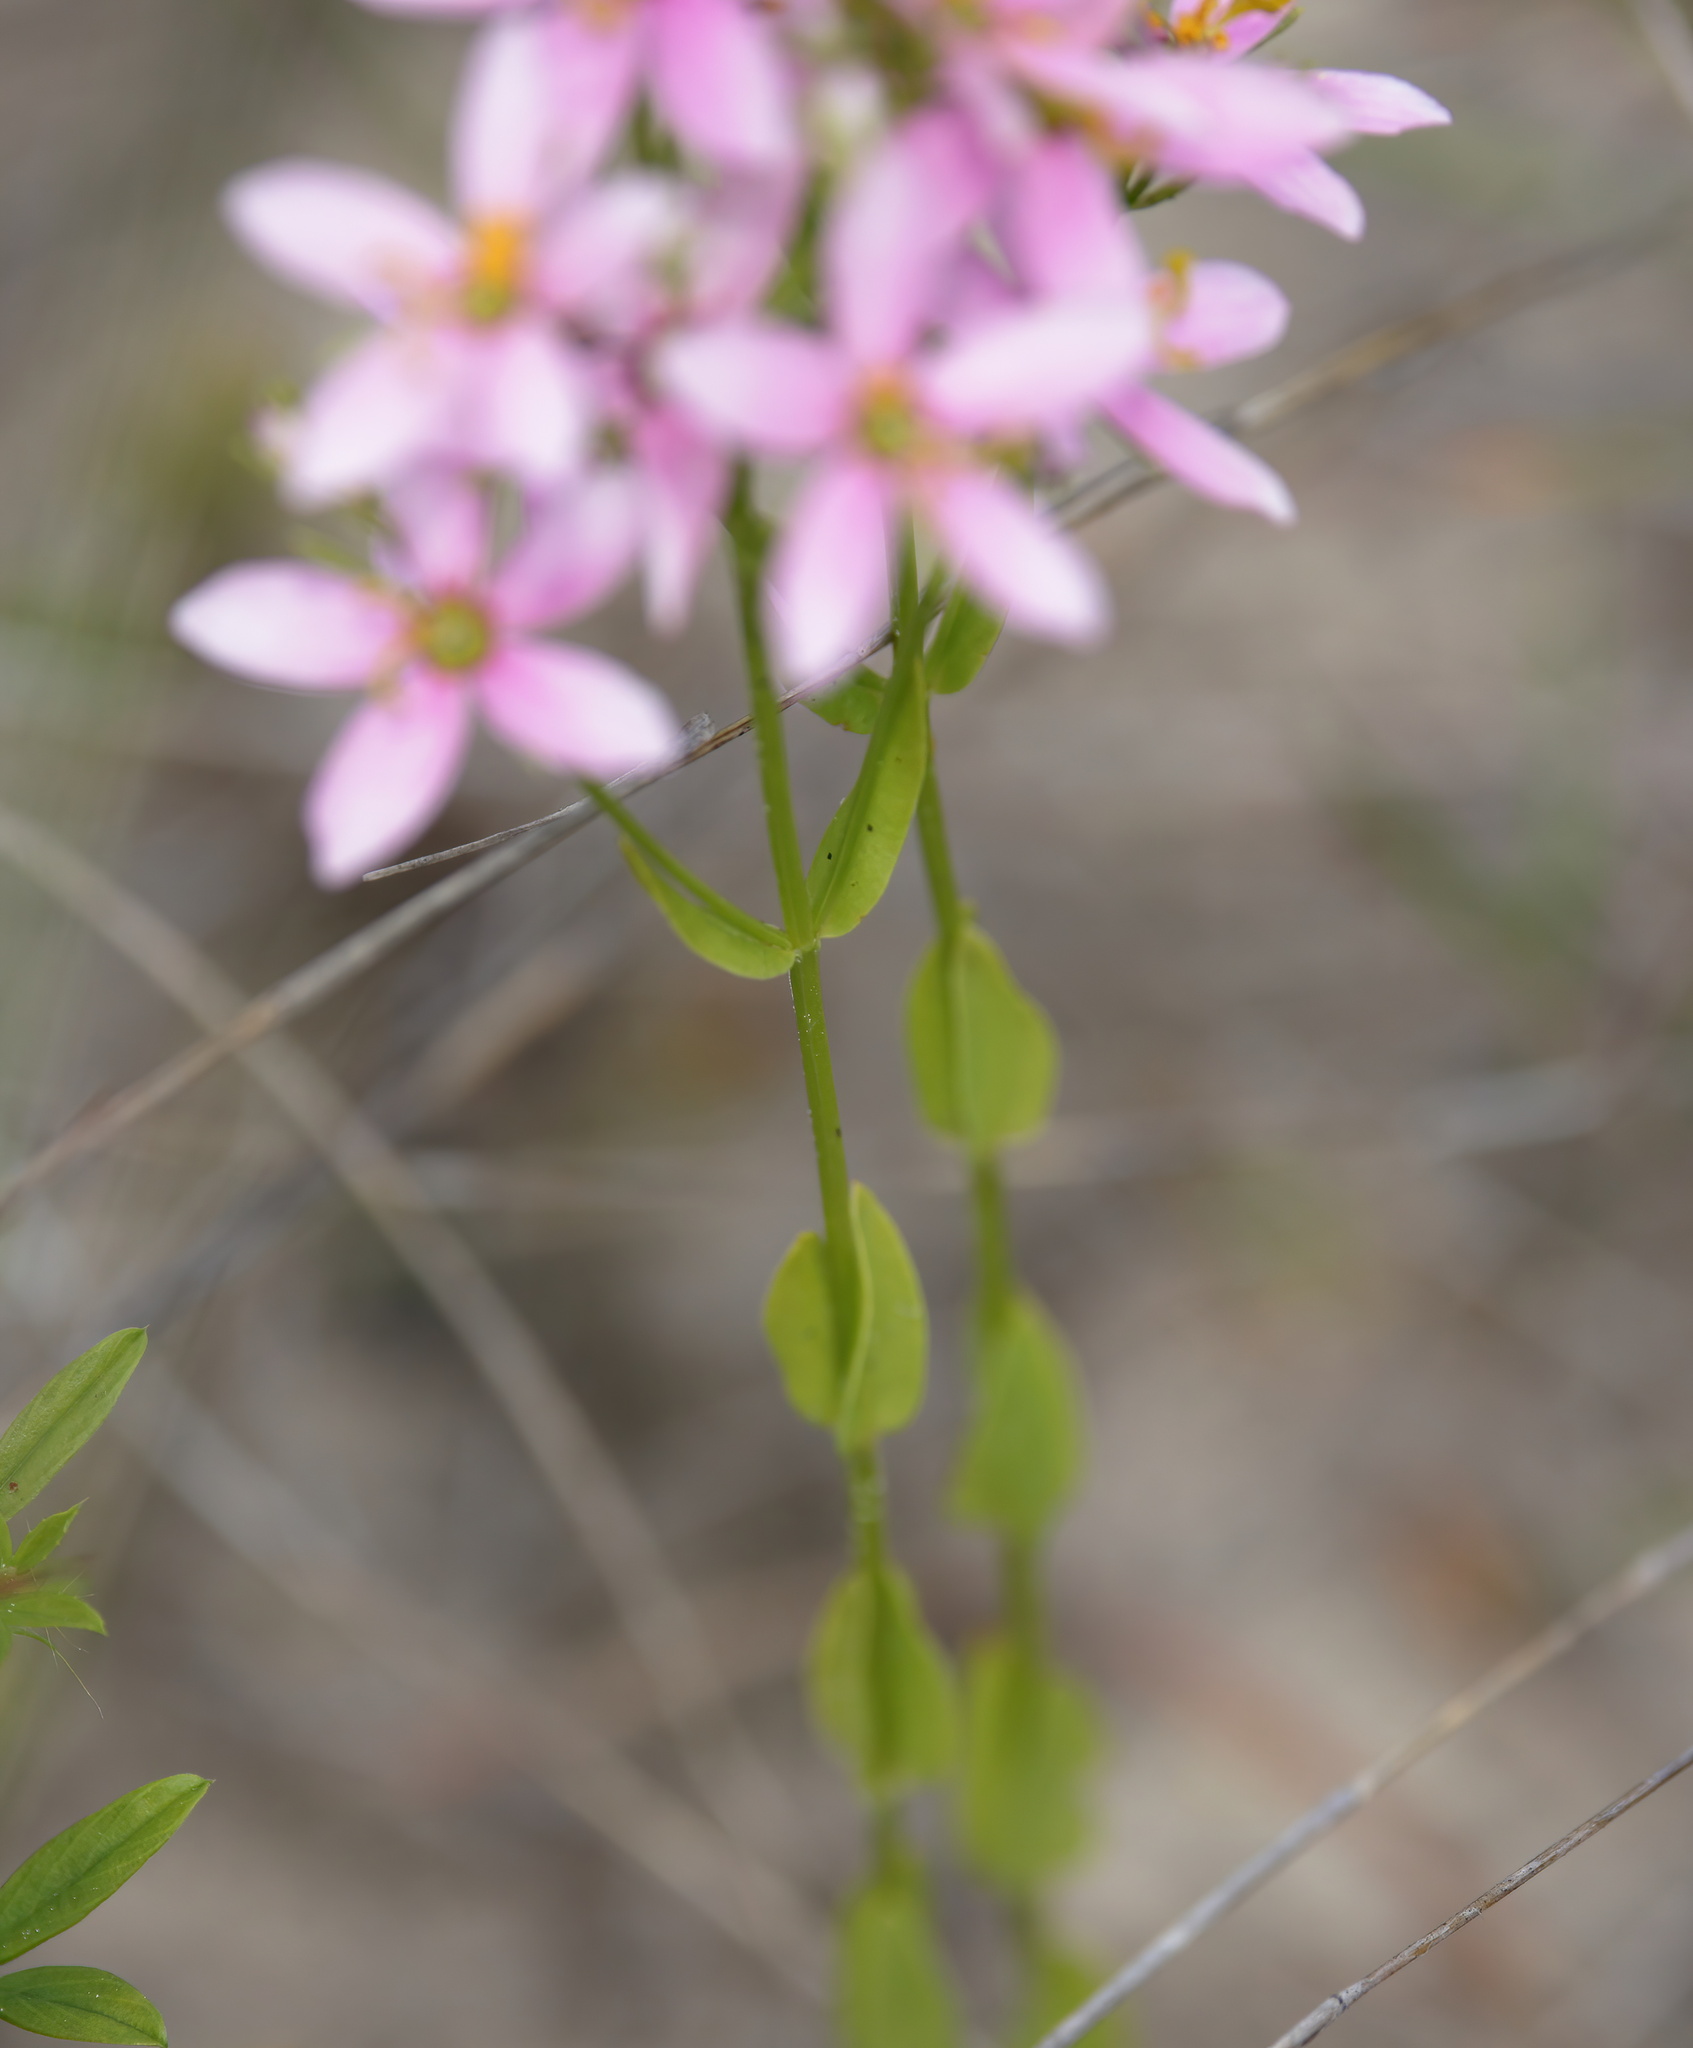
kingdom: Plantae
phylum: Tracheophyta
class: Magnoliopsida
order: Gentianales
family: Gentianaceae
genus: Sabatia
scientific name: Sabatia brachiata
